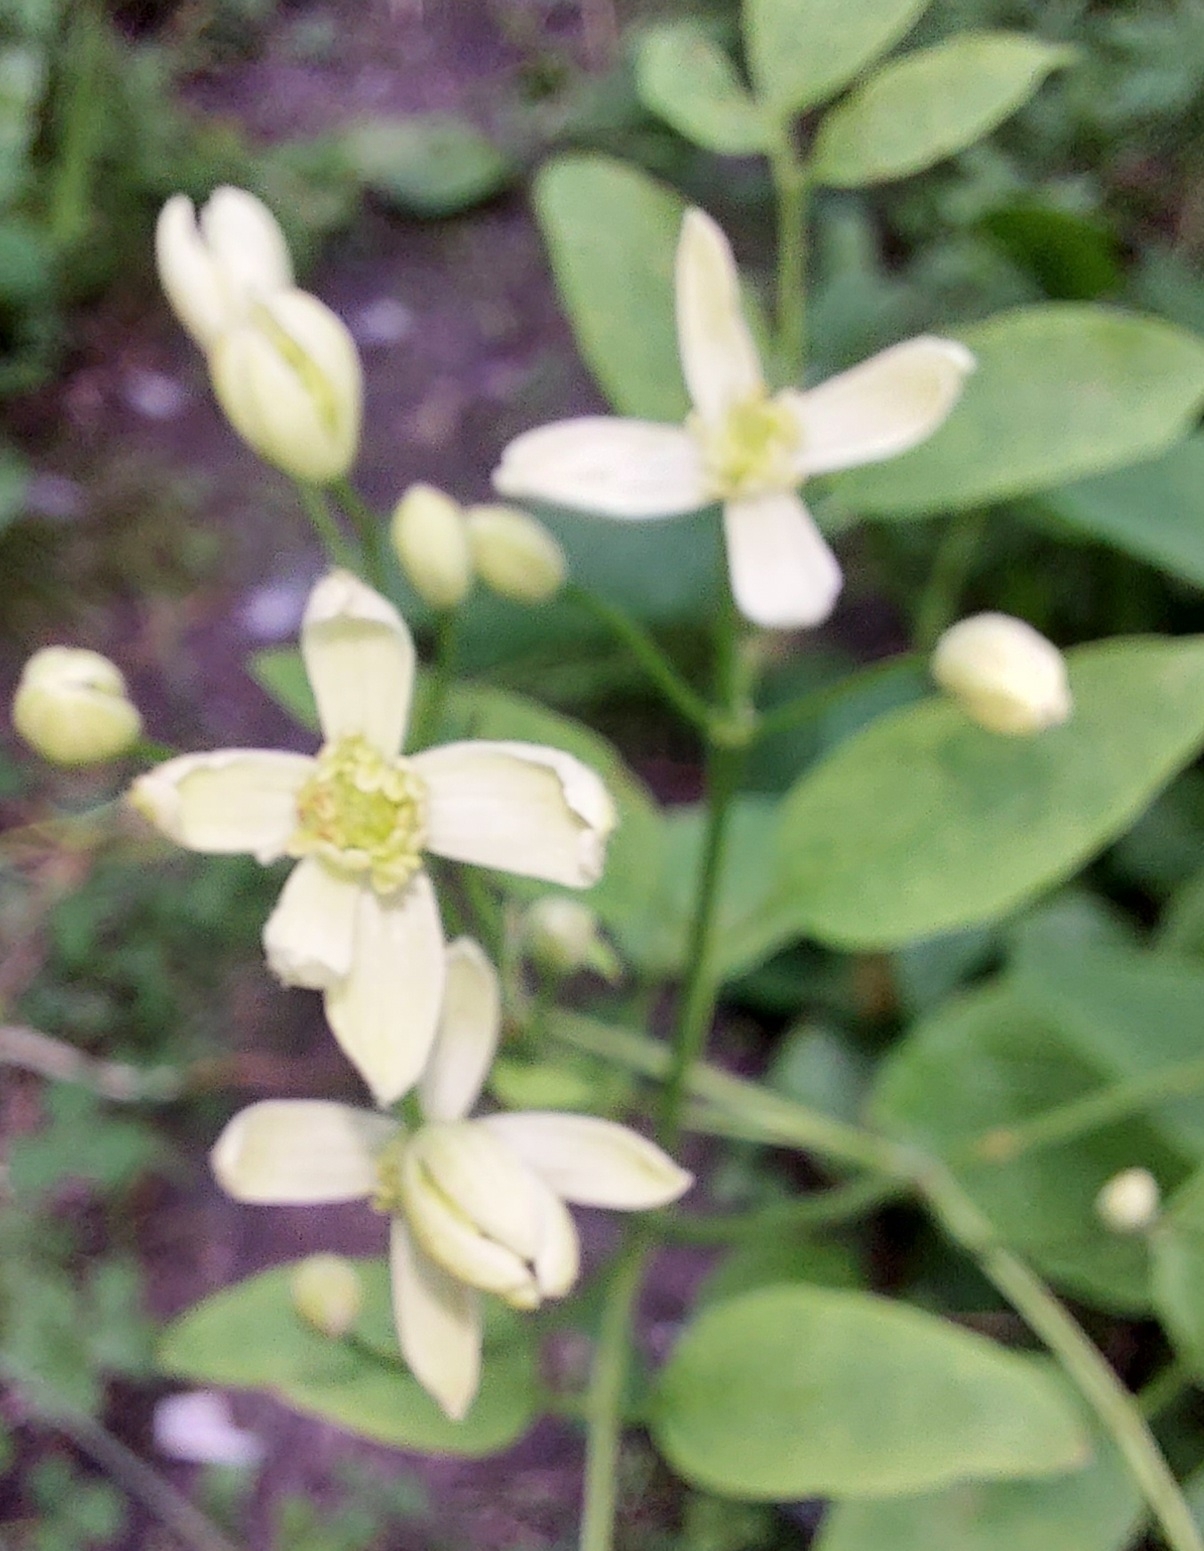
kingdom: Plantae
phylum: Tracheophyta
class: Magnoliopsida
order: Ranunculales
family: Ranunculaceae
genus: Clematis
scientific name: Clematis terniflora
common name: Sweet autumn clematis
